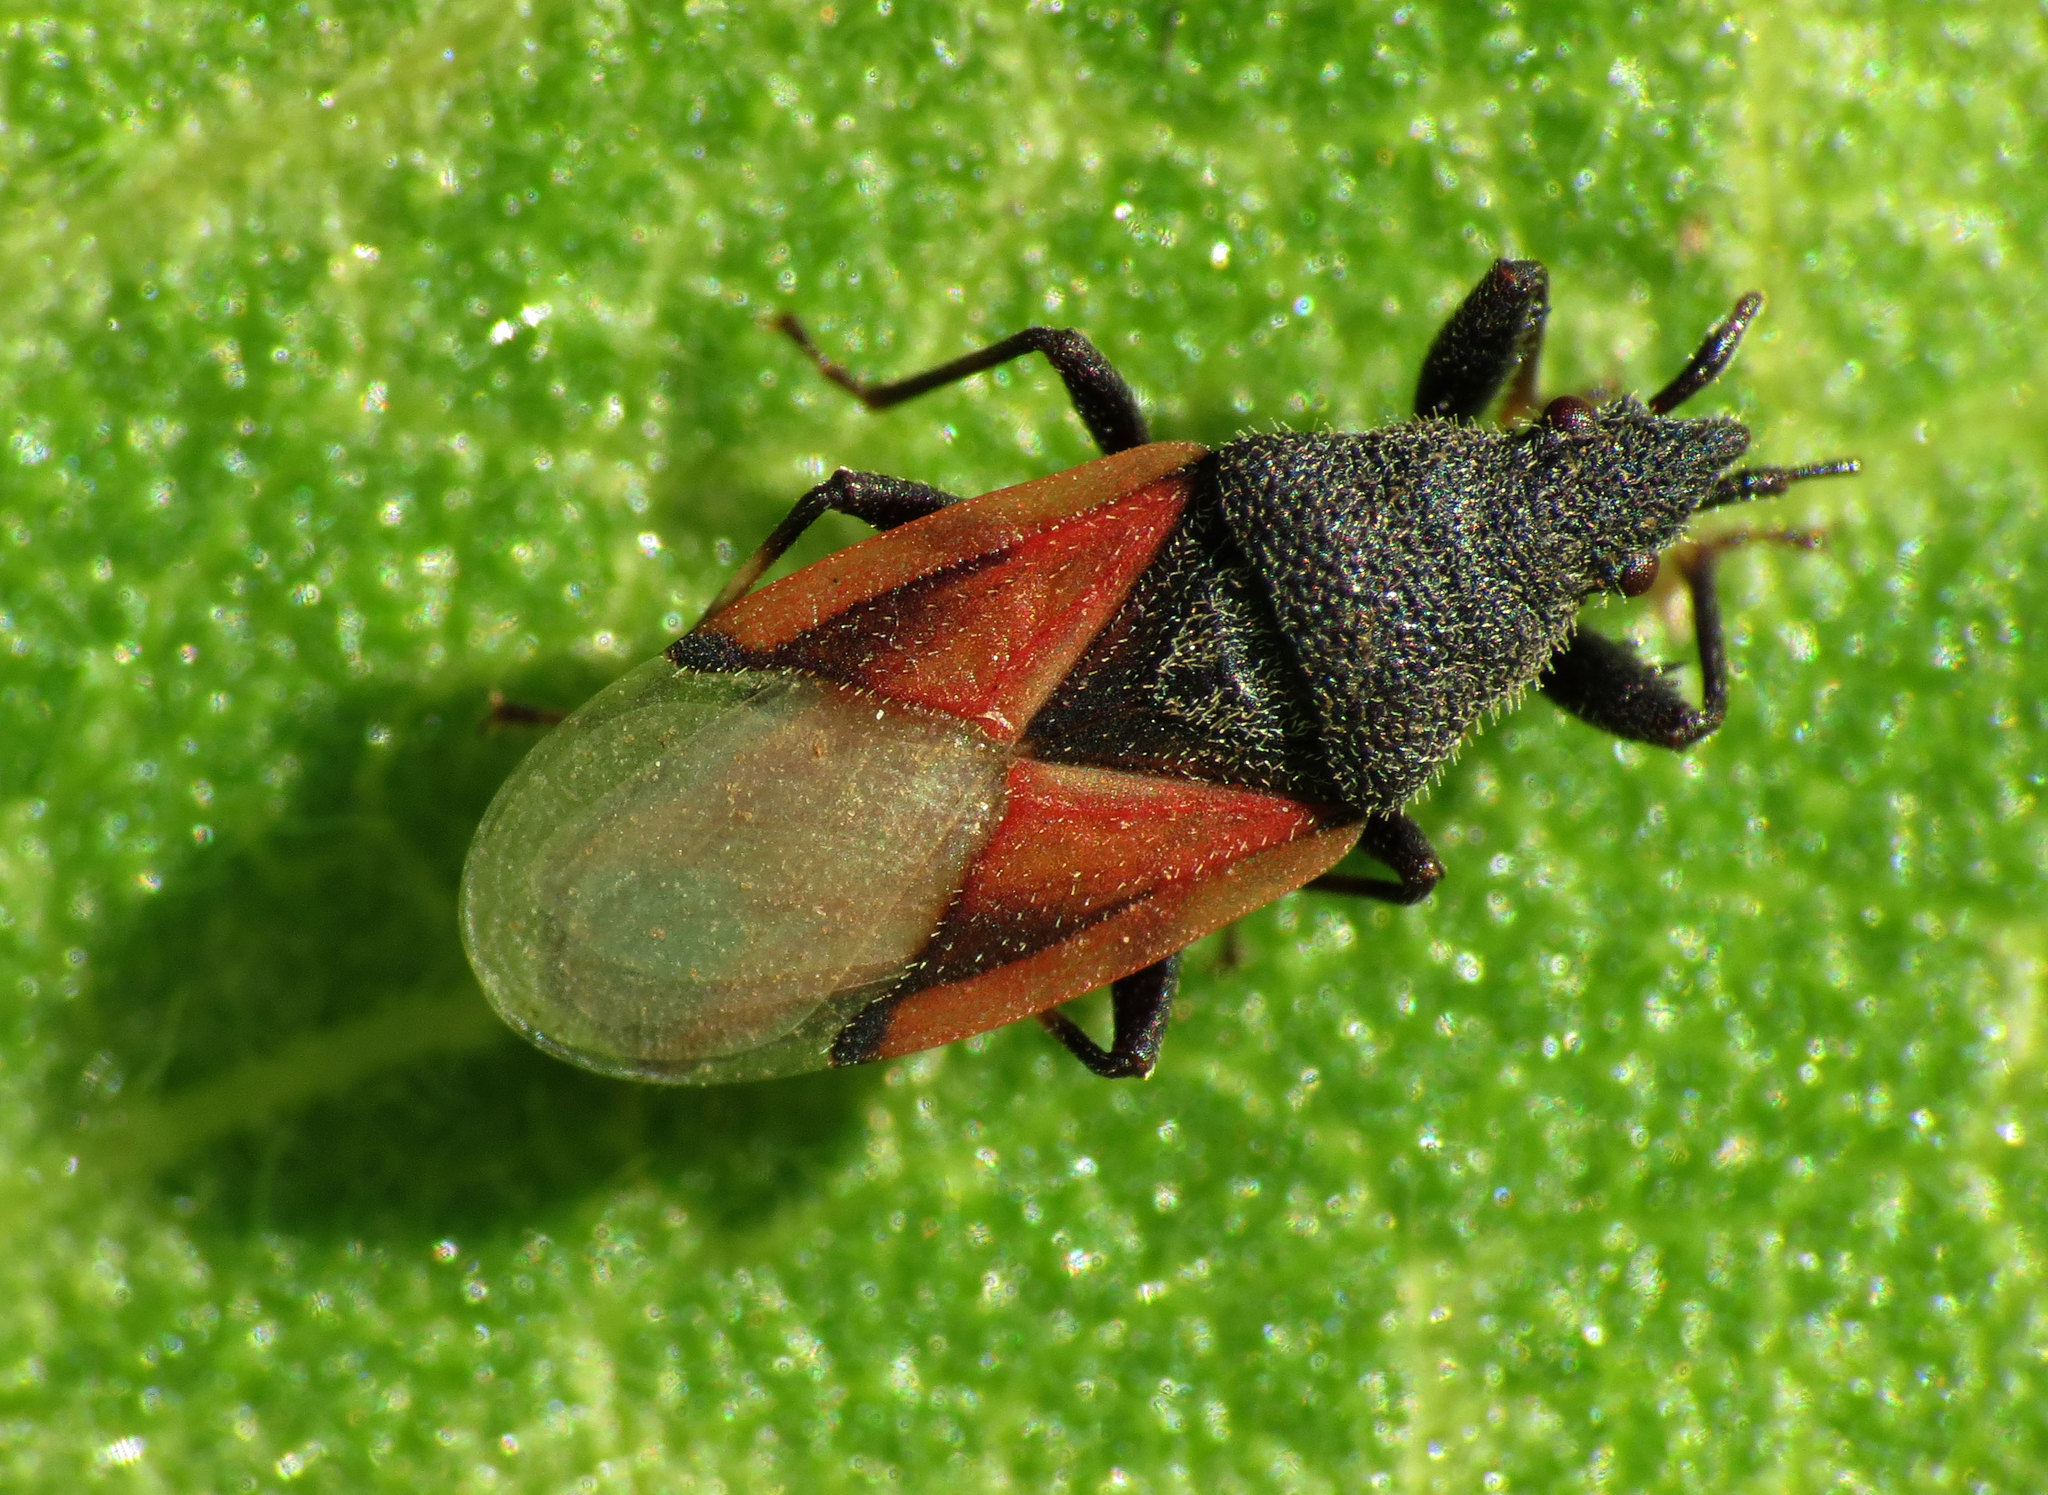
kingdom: Animalia
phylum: Arthropoda
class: Insecta
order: Hemiptera
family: Oxycarenidae
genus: Oxycarenus
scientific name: Oxycarenus lavaterae
